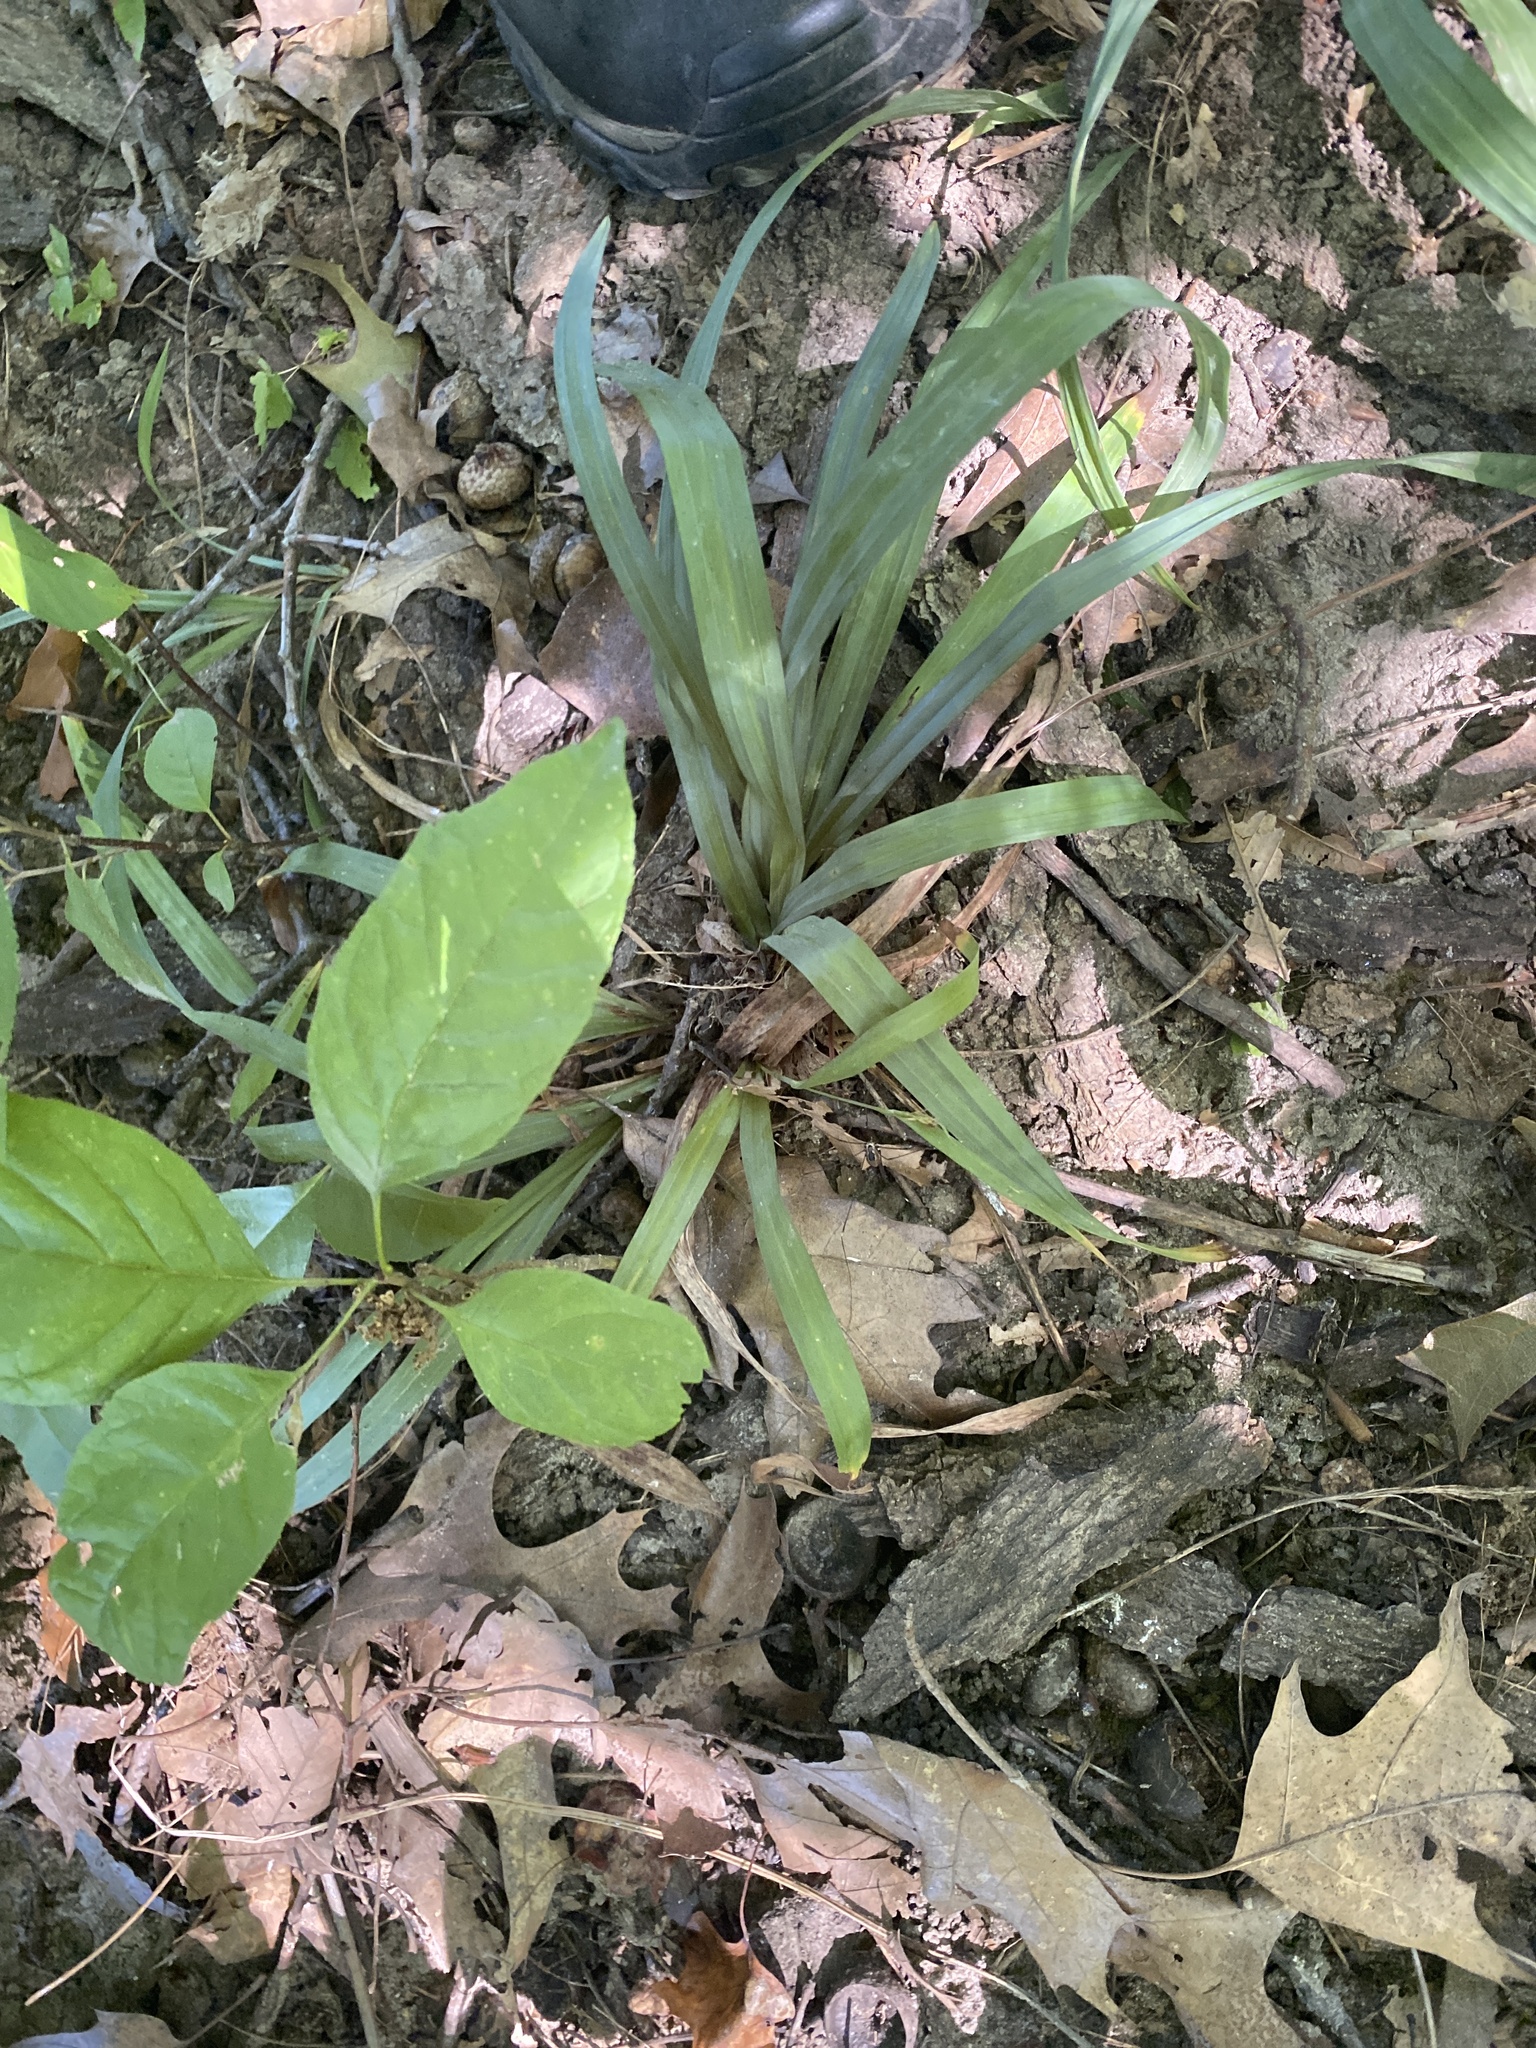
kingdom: Plantae
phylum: Tracheophyta
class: Liliopsida
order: Poales
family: Cyperaceae
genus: Carex
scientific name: Carex laxiculmis
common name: Spreading sedge
